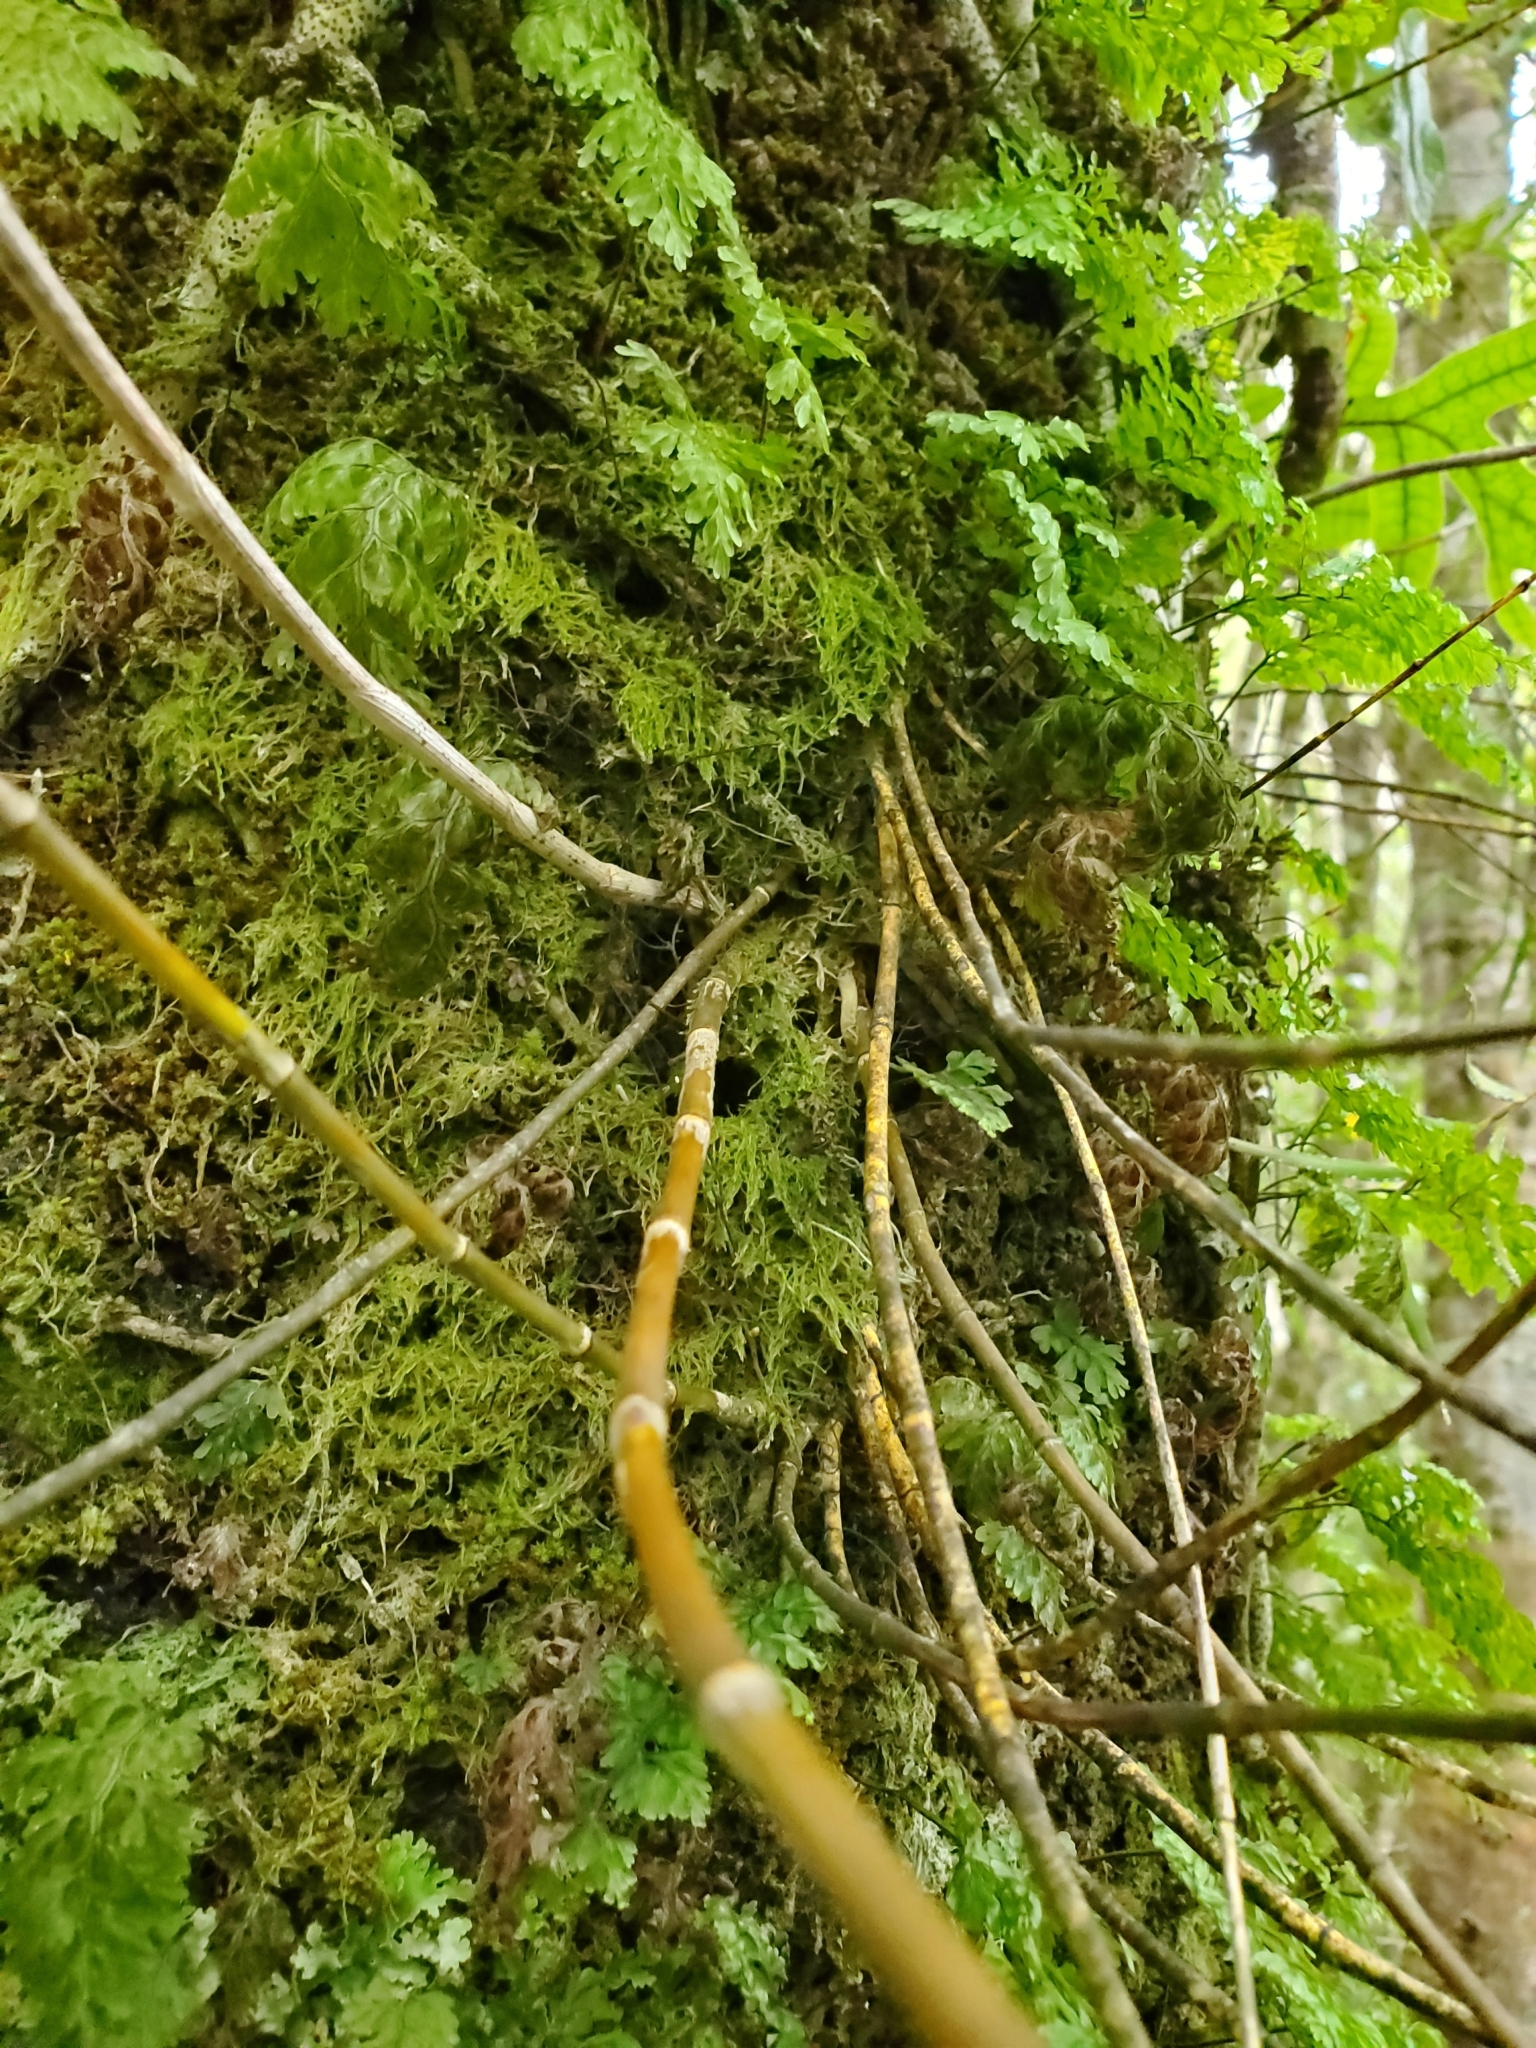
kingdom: Plantae
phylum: Tracheophyta
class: Liliopsida
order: Asparagales
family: Orchidaceae
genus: Dendrobium
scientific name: Dendrobium cunninghamii
